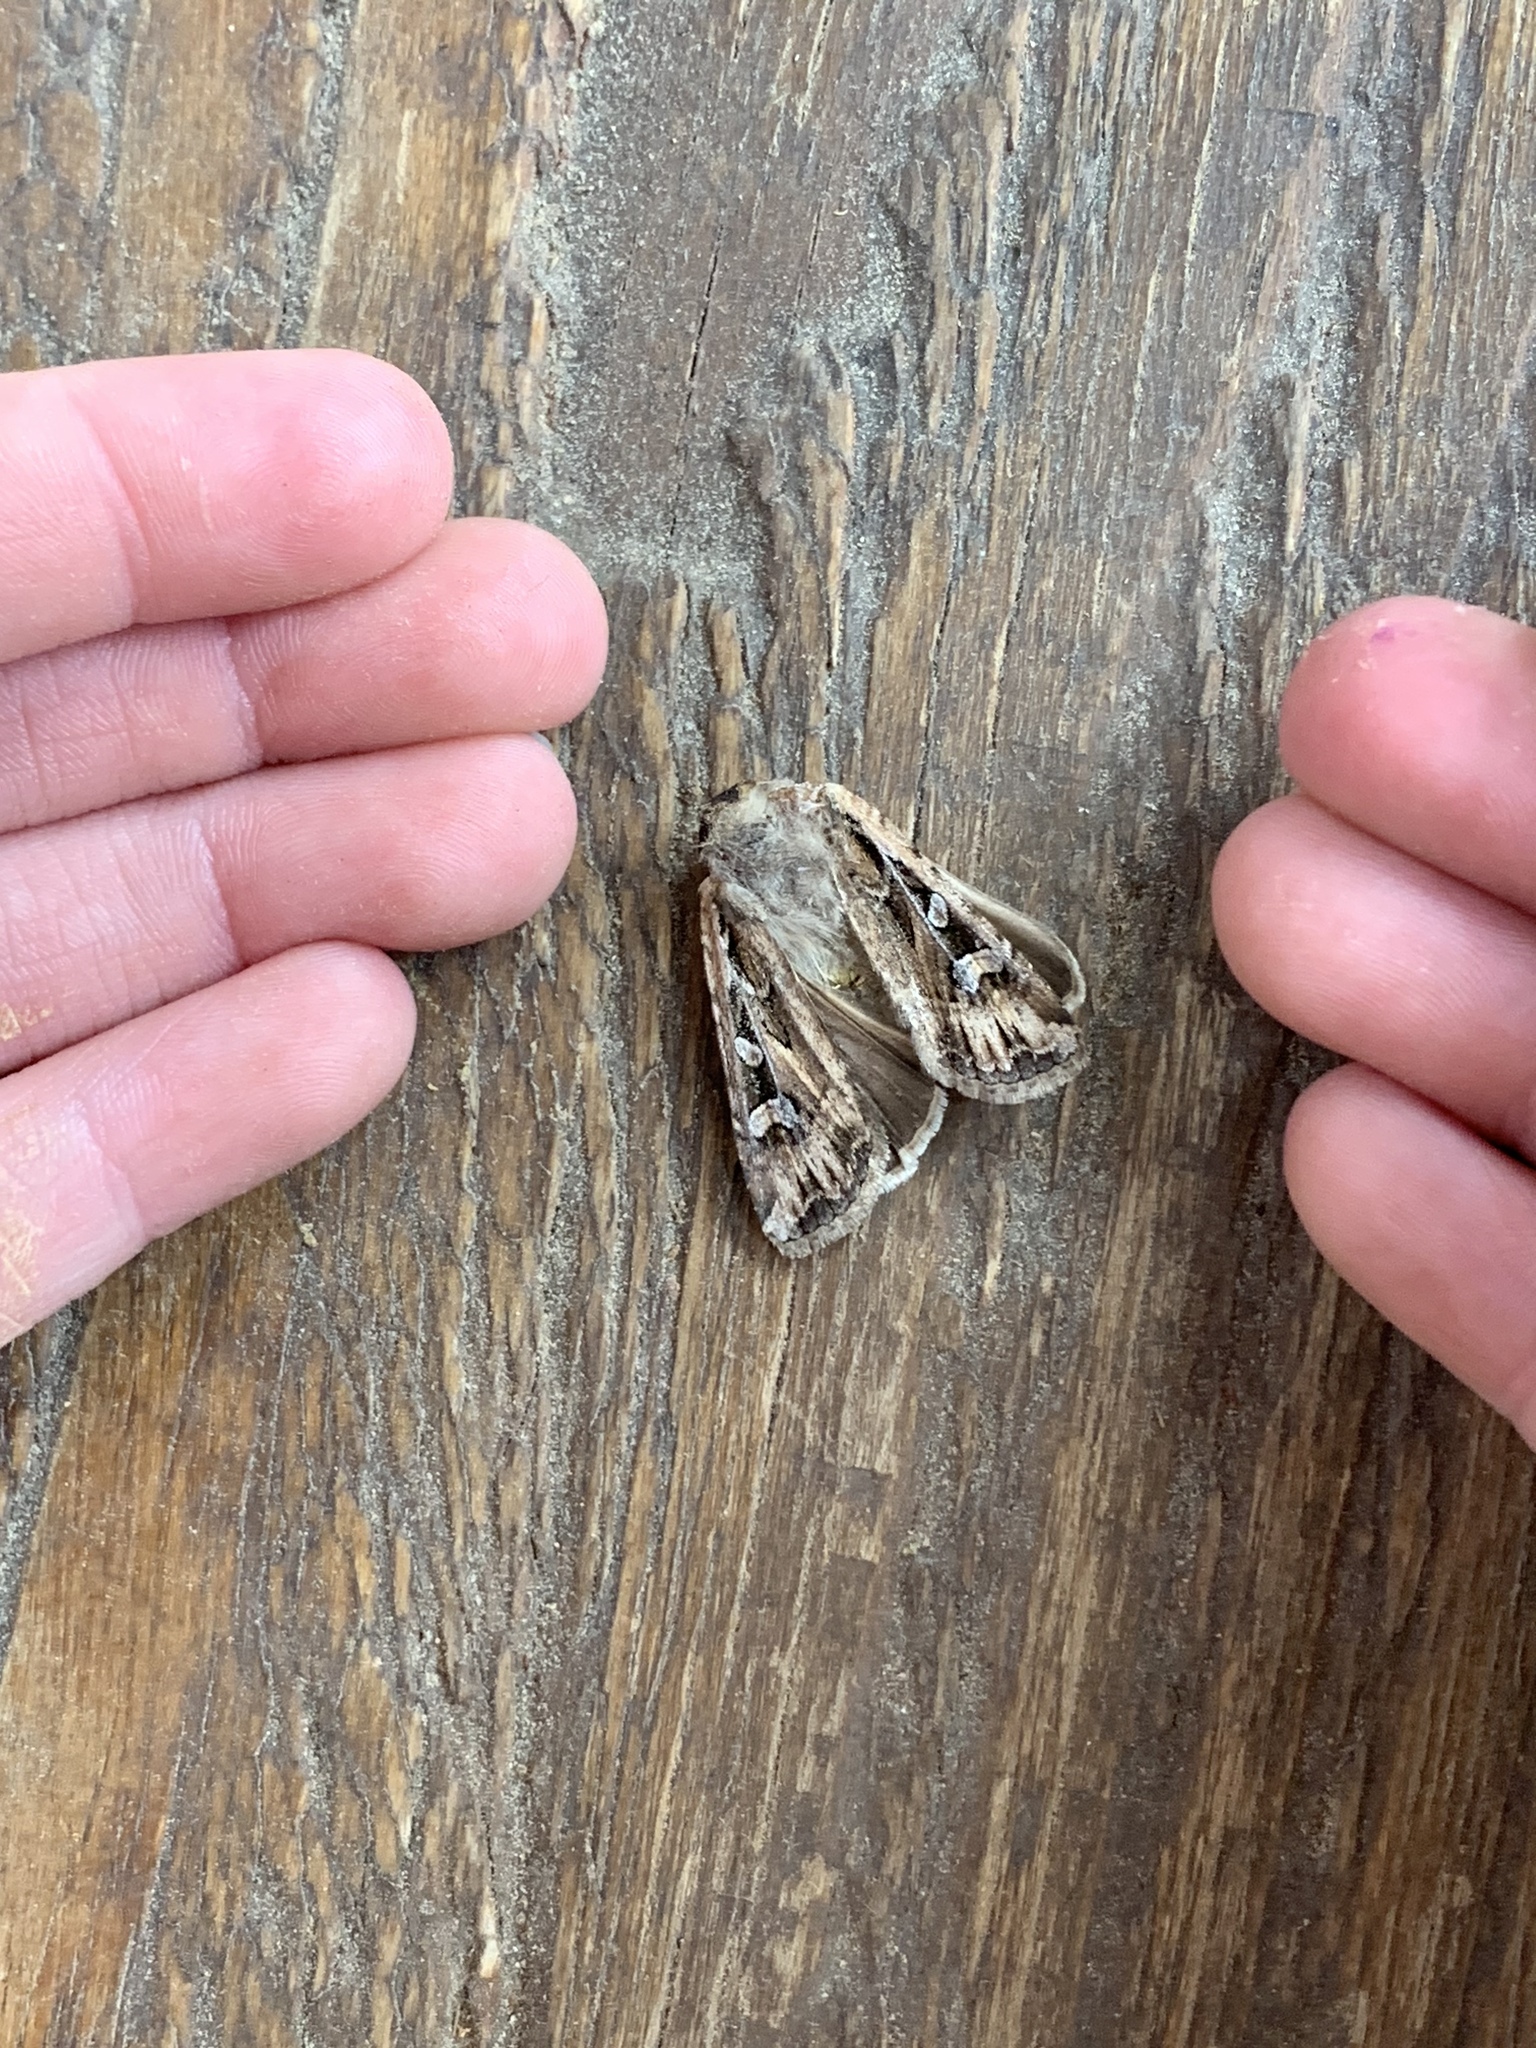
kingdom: Animalia
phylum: Arthropoda
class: Insecta
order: Lepidoptera
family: Noctuidae
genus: Euxoa
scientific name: Euxoa auxiliaris
